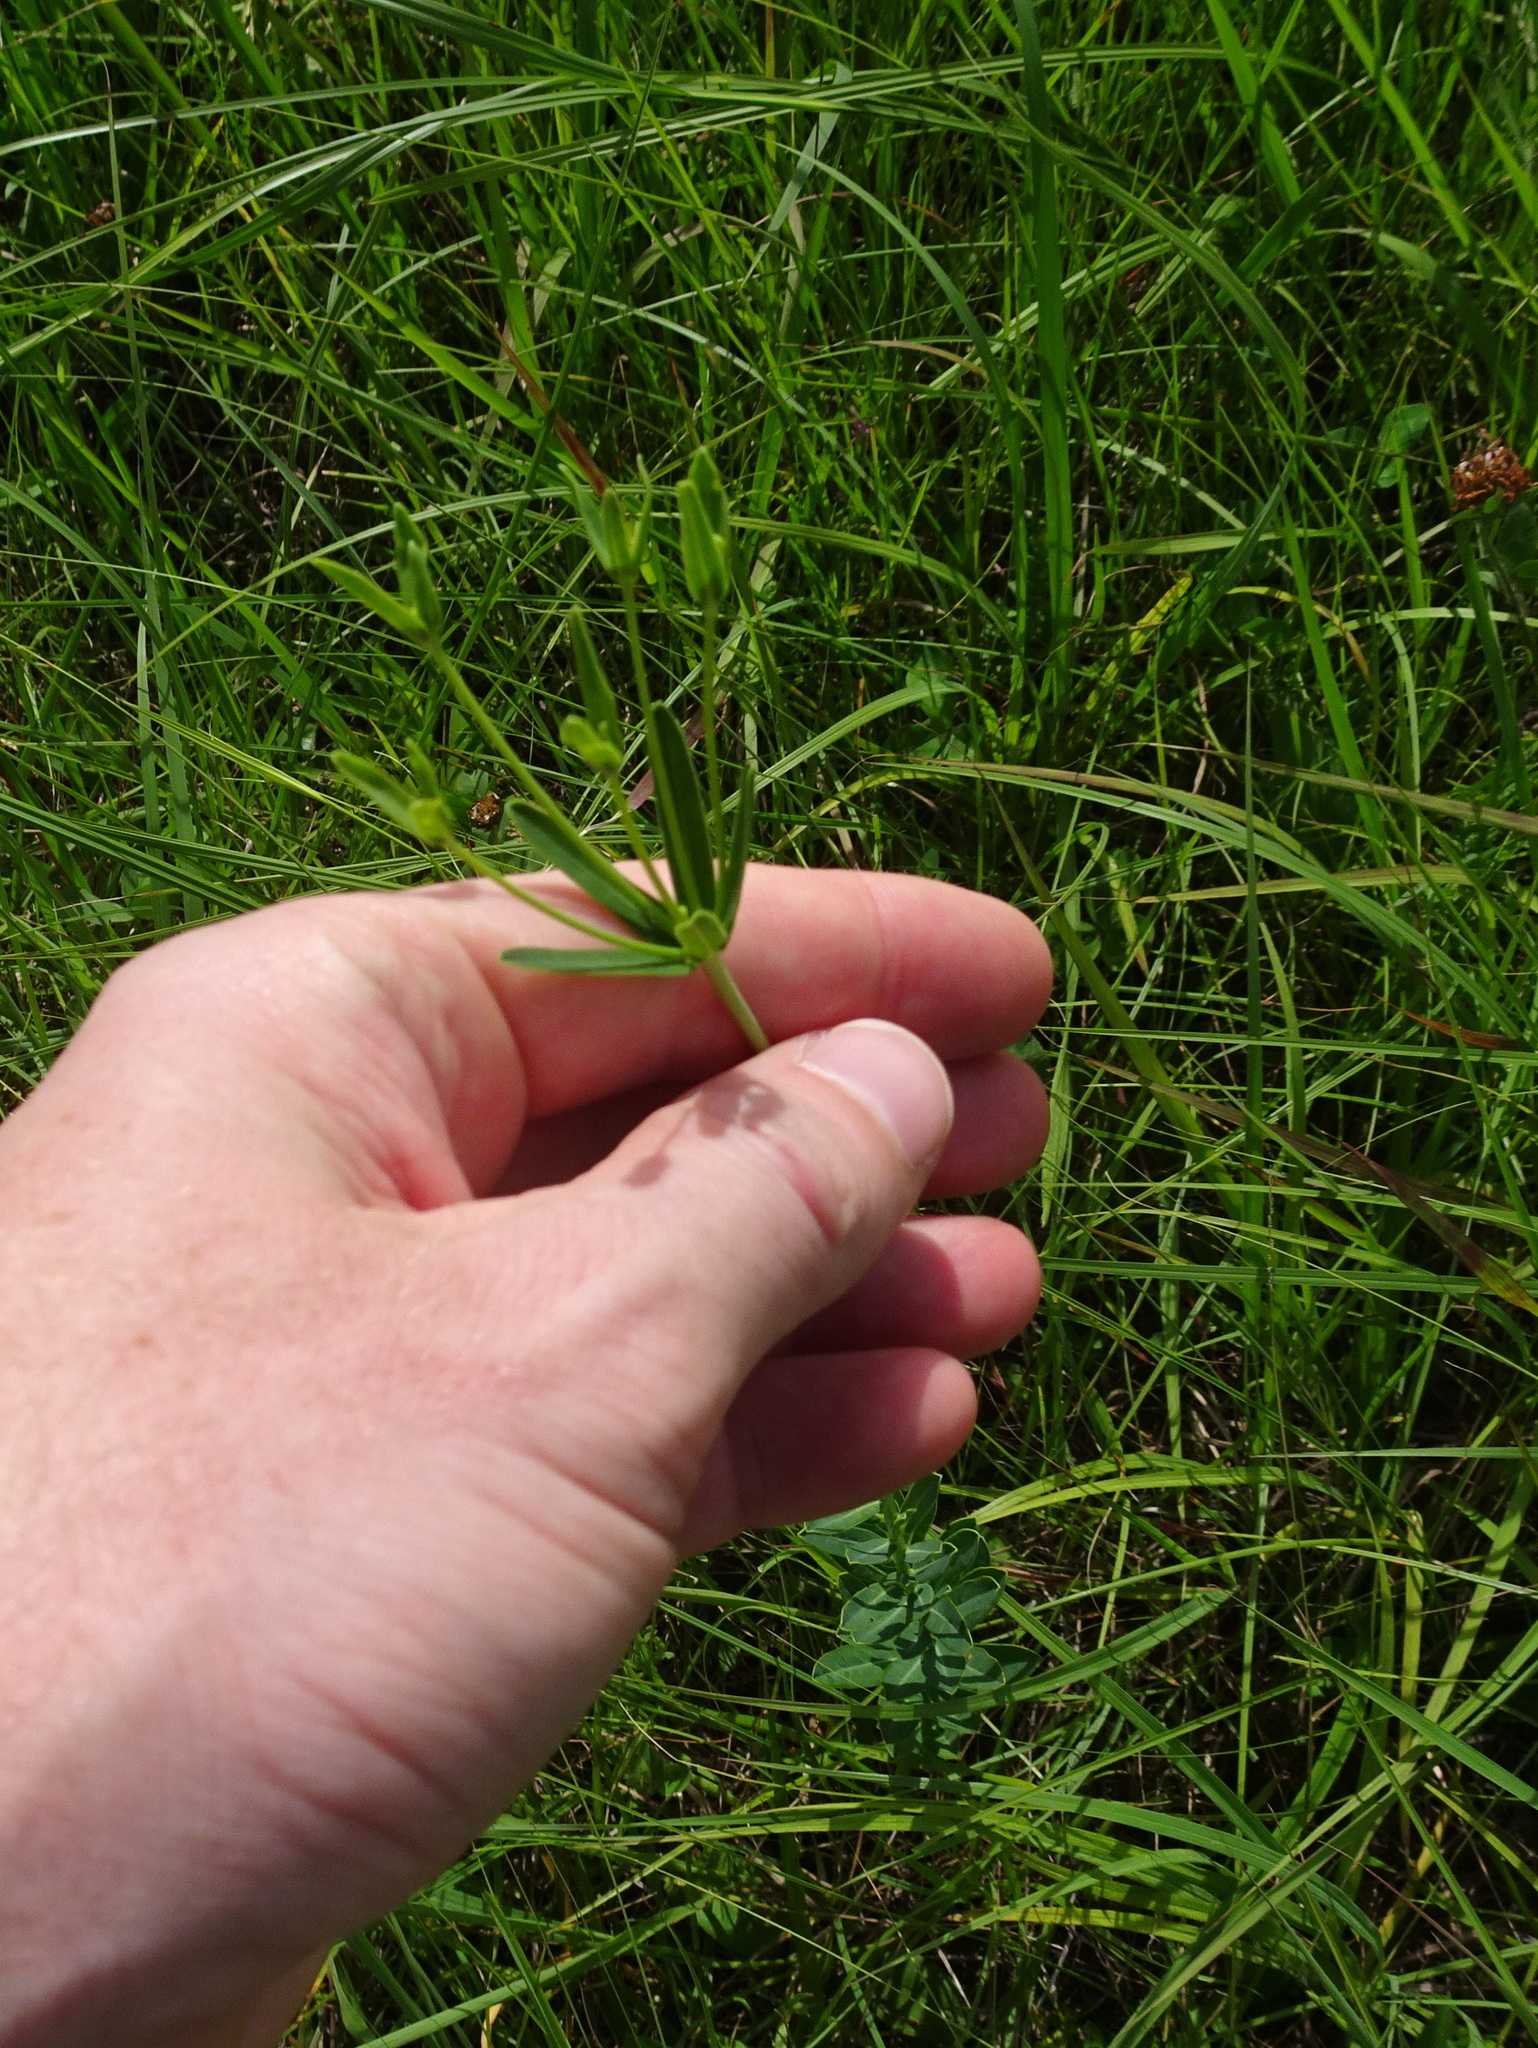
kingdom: Plantae
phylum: Tracheophyta
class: Magnoliopsida
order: Malpighiales
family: Euphorbiaceae
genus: Euphorbia
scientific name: Euphorbia corollata
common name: Flowering spurge
